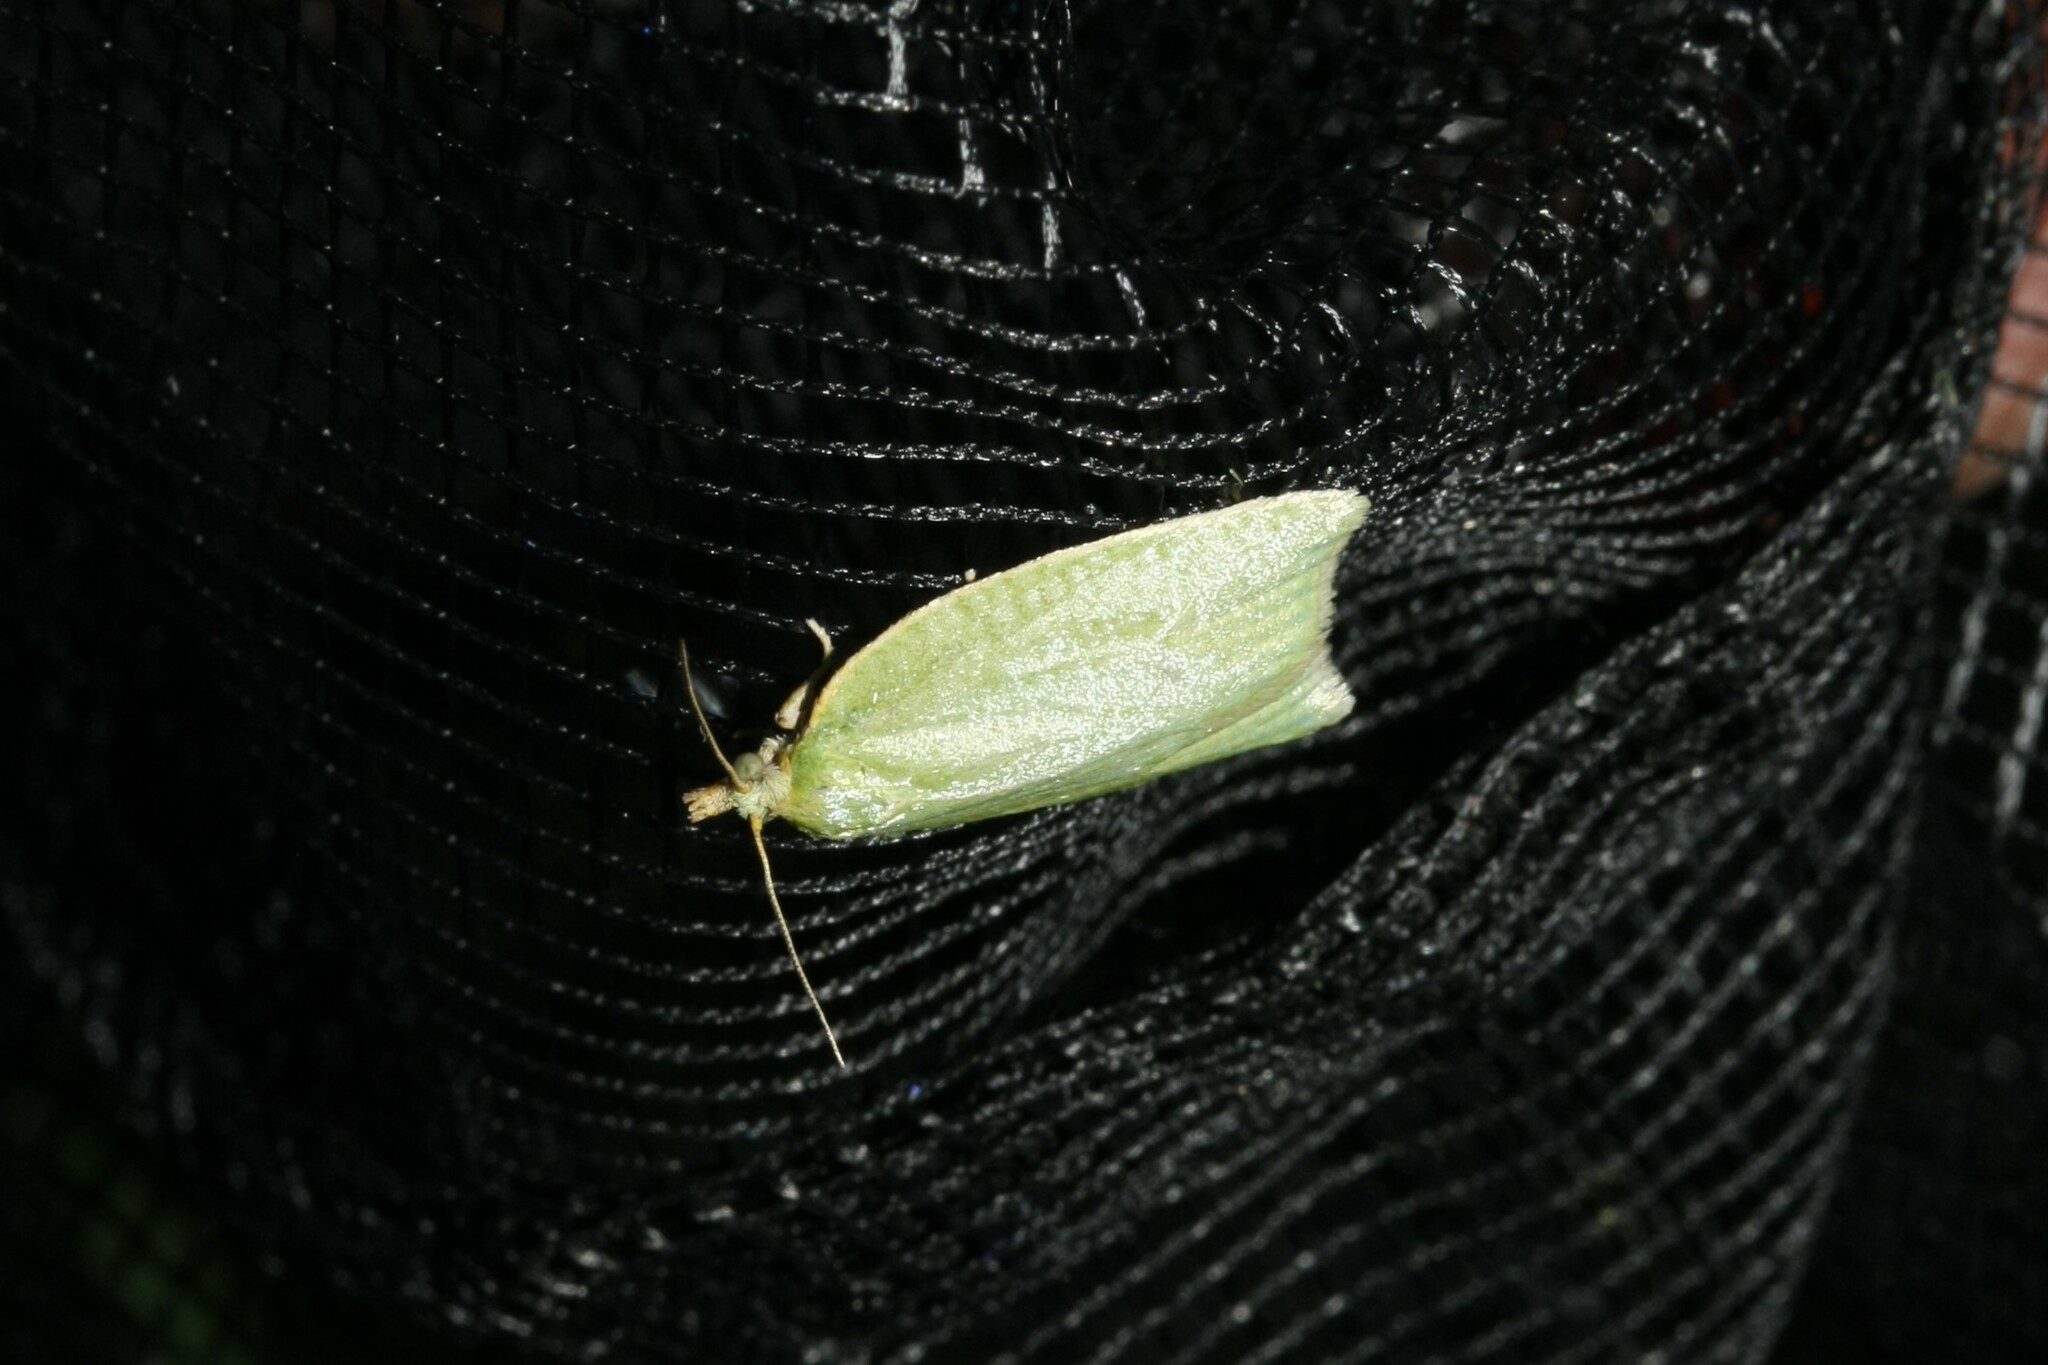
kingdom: Animalia
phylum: Arthropoda
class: Insecta
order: Lepidoptera
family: Tortricidae
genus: Tortrix
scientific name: Tortrix viridana
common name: Green oak tortrix
